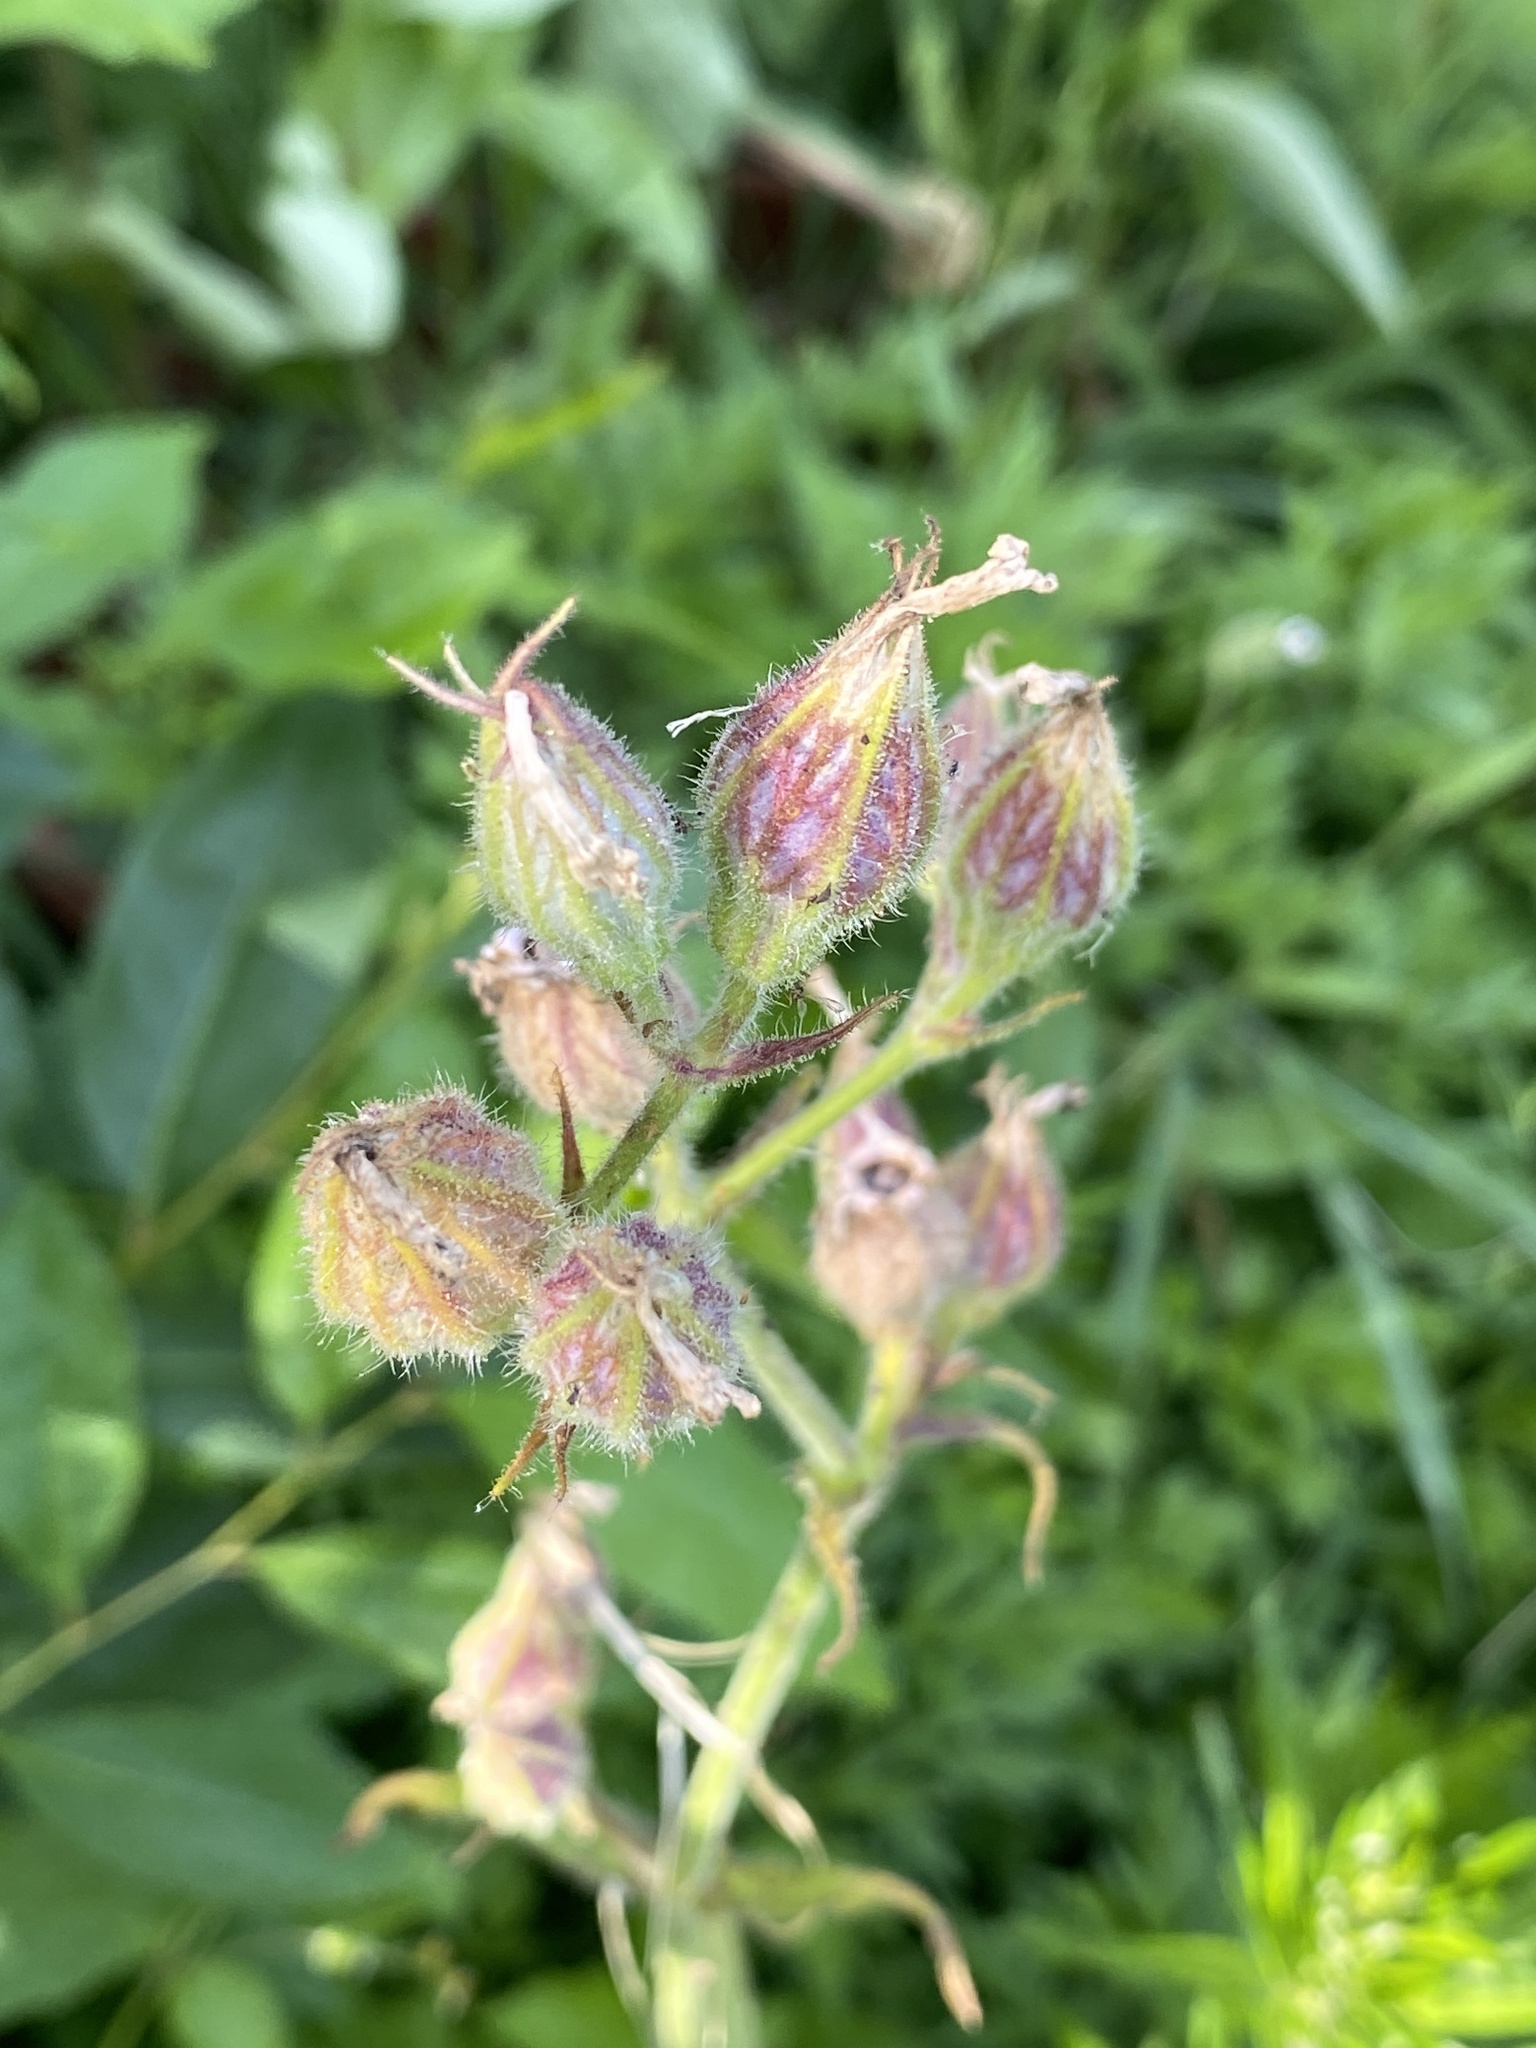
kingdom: Plantae
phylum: Tracheophyta
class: Magnoliopsida
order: Caryophyllales
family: Caryophyllaceae
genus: Silene
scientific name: Silene latifolia
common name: White campion
